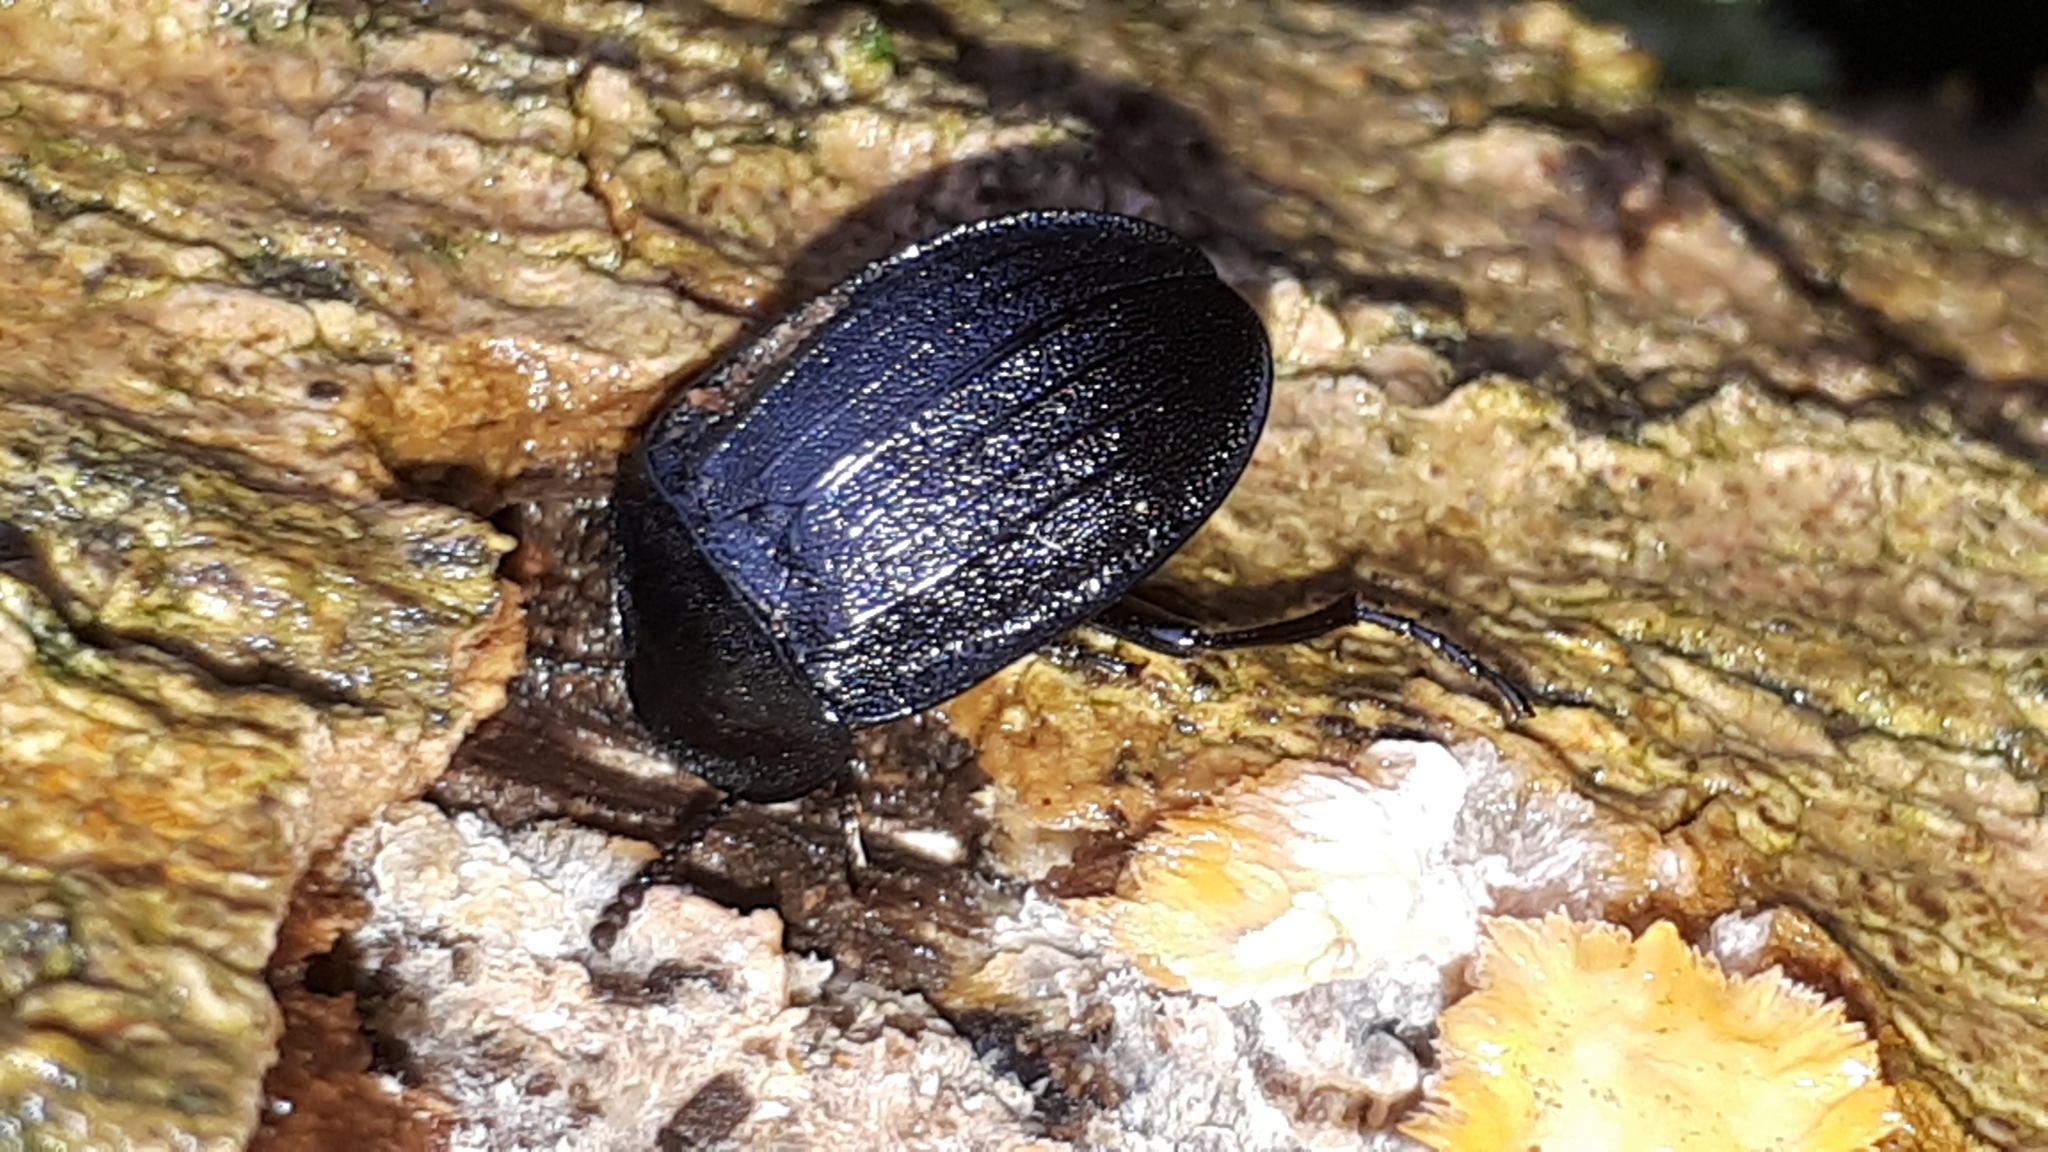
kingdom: Animalia
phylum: Arthropoda
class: Insecta
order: Coleoptera
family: Staphylinidae
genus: Silpha
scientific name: Silpha atrata
